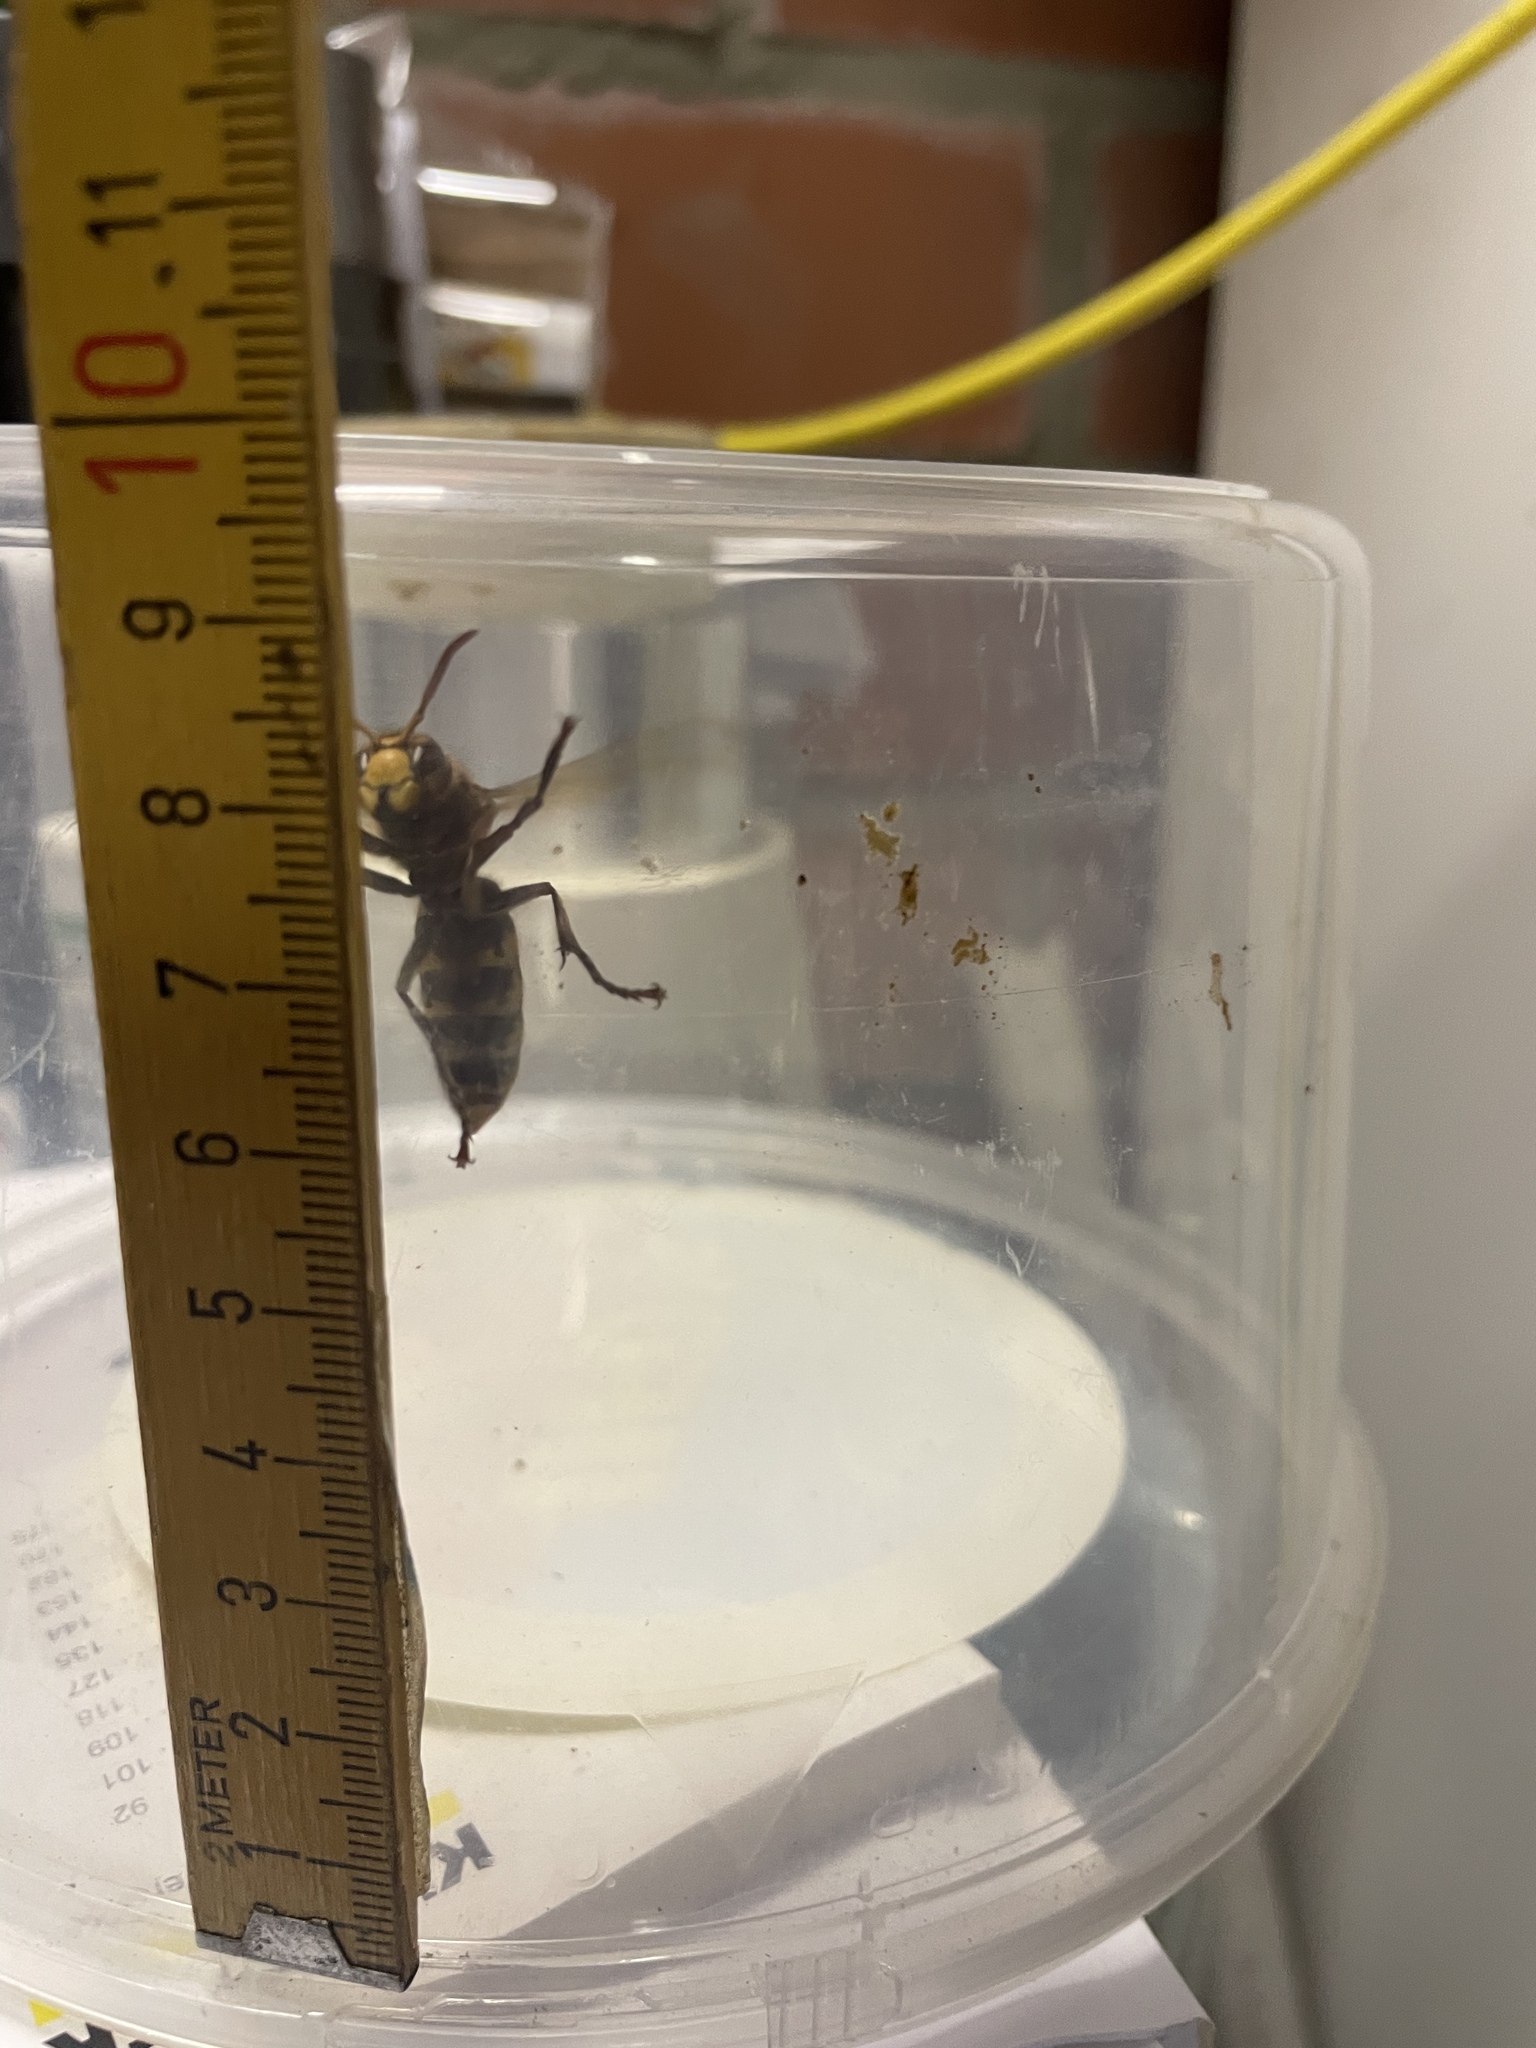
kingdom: Animalia
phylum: Arthropoda
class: Insecta
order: Hymenoptera
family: Vespidae
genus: Vespa
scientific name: Vespa crabro
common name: Hornet
